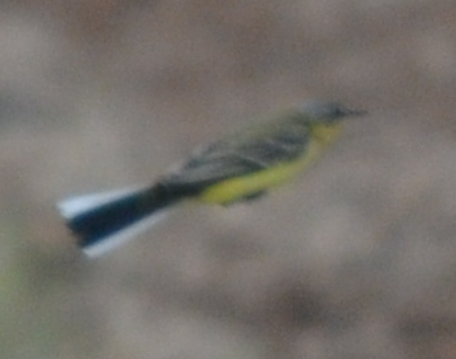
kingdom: Animalia
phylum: Chordata
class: Aves
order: Passeriformes
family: Motacillidae
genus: Motacilla
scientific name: Motacilla flava
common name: Western yellow wagtail
